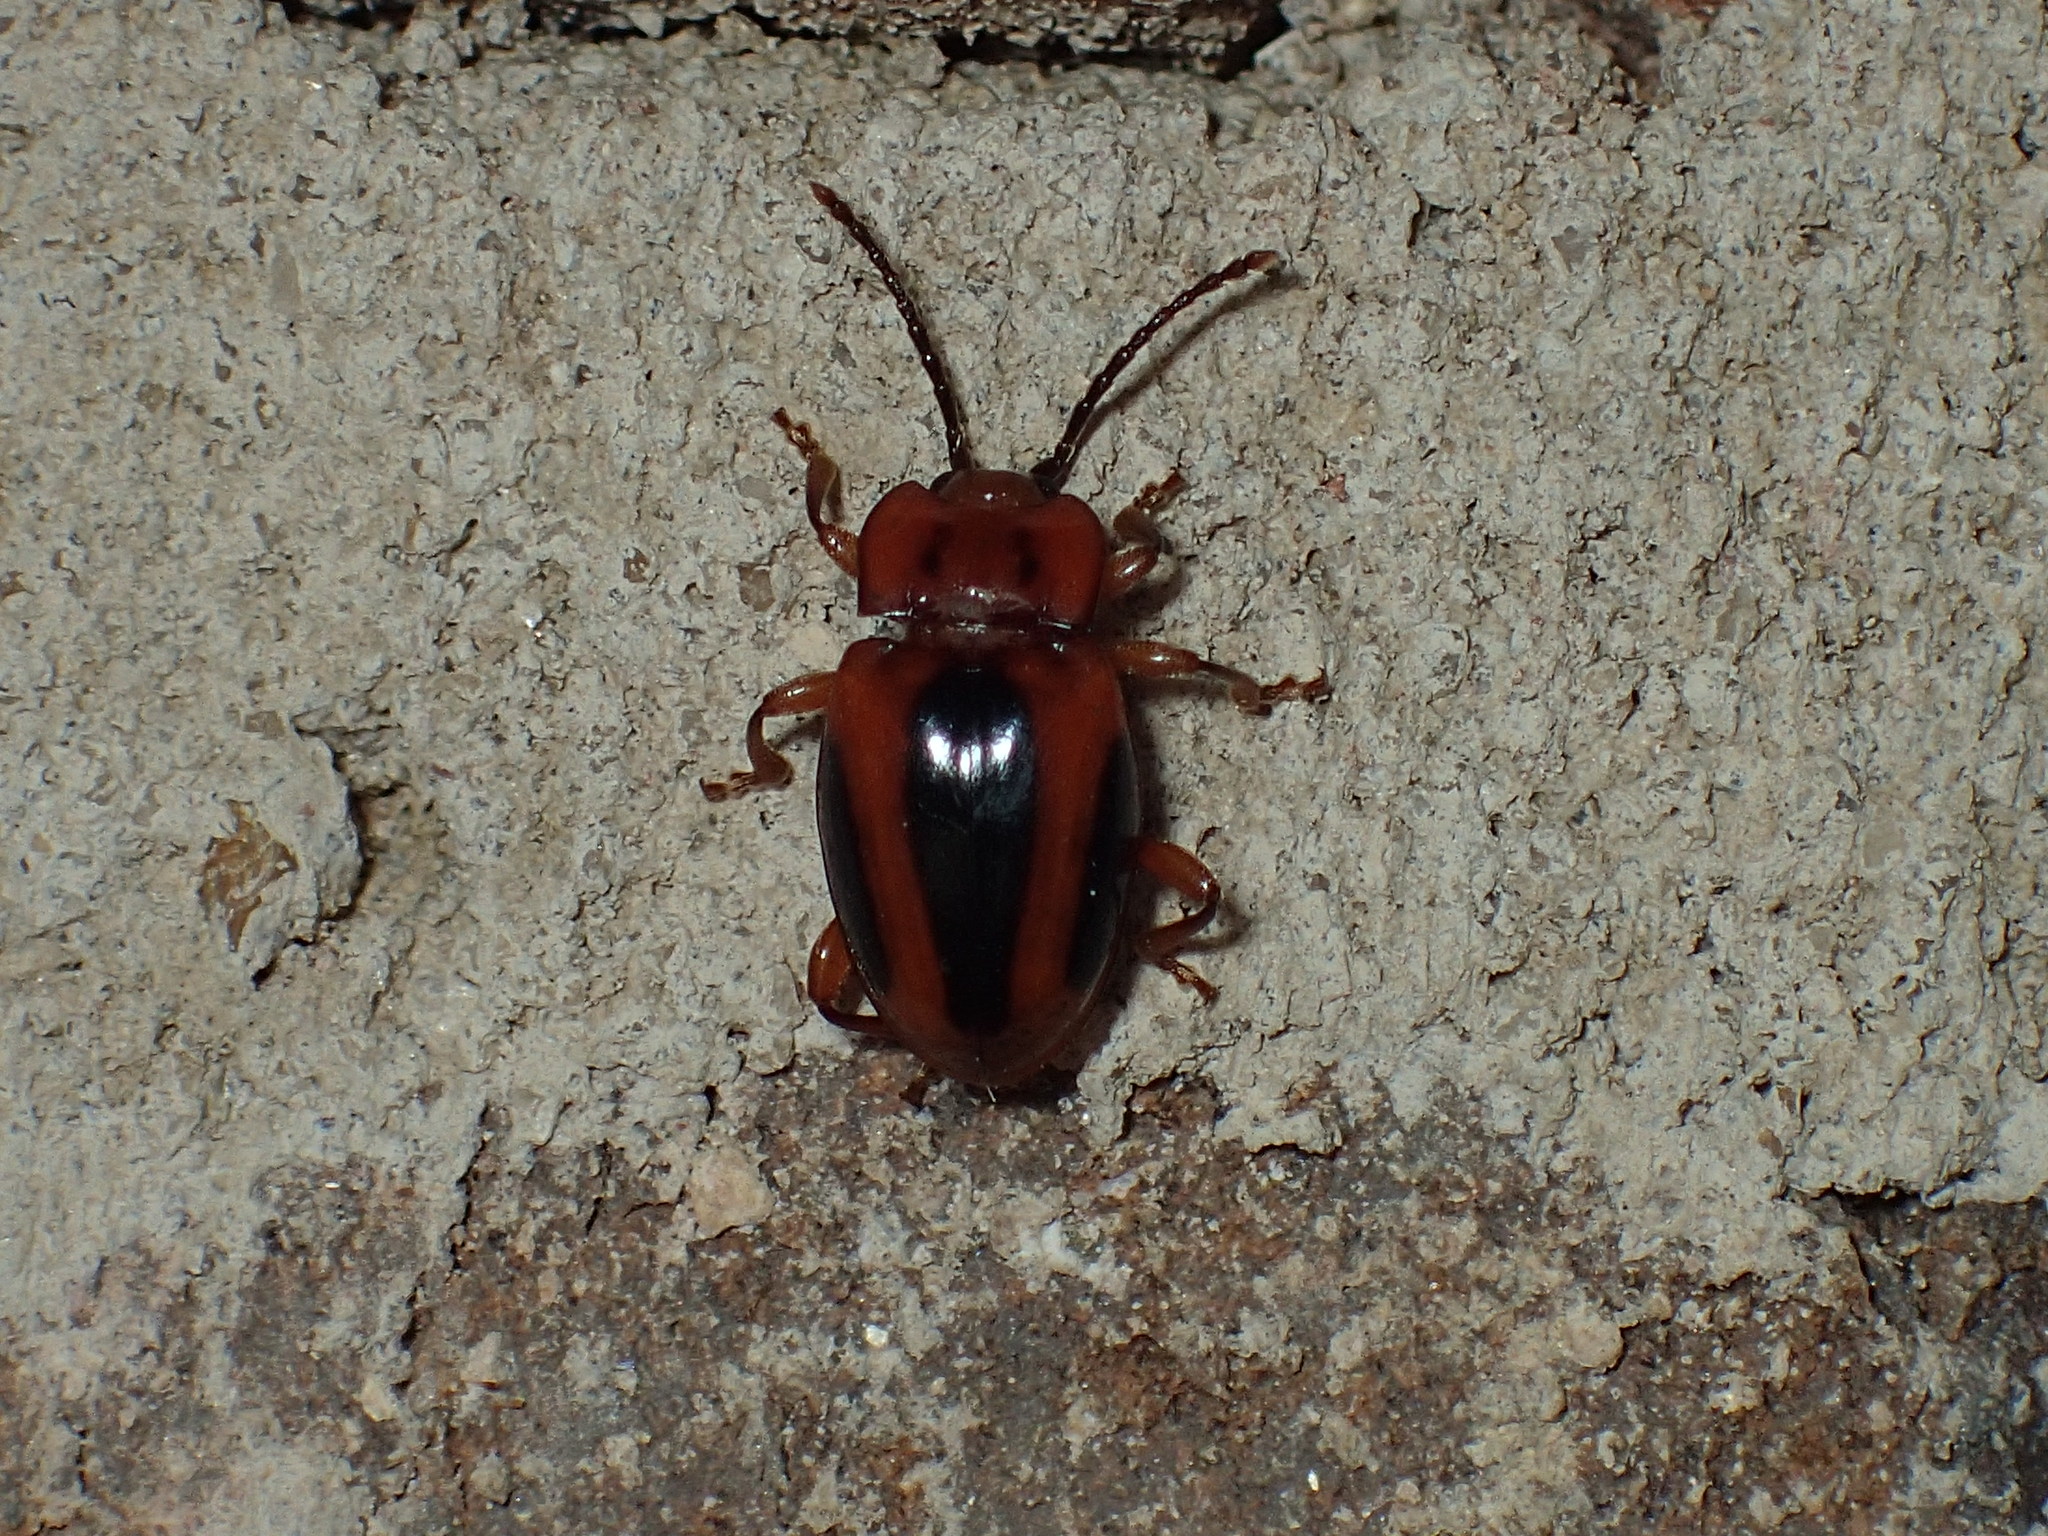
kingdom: Animalia
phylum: Arthropoda
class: Insecta
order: Coleoptera
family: Endomychidae
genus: Aphorista
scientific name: Aphorista vittata
